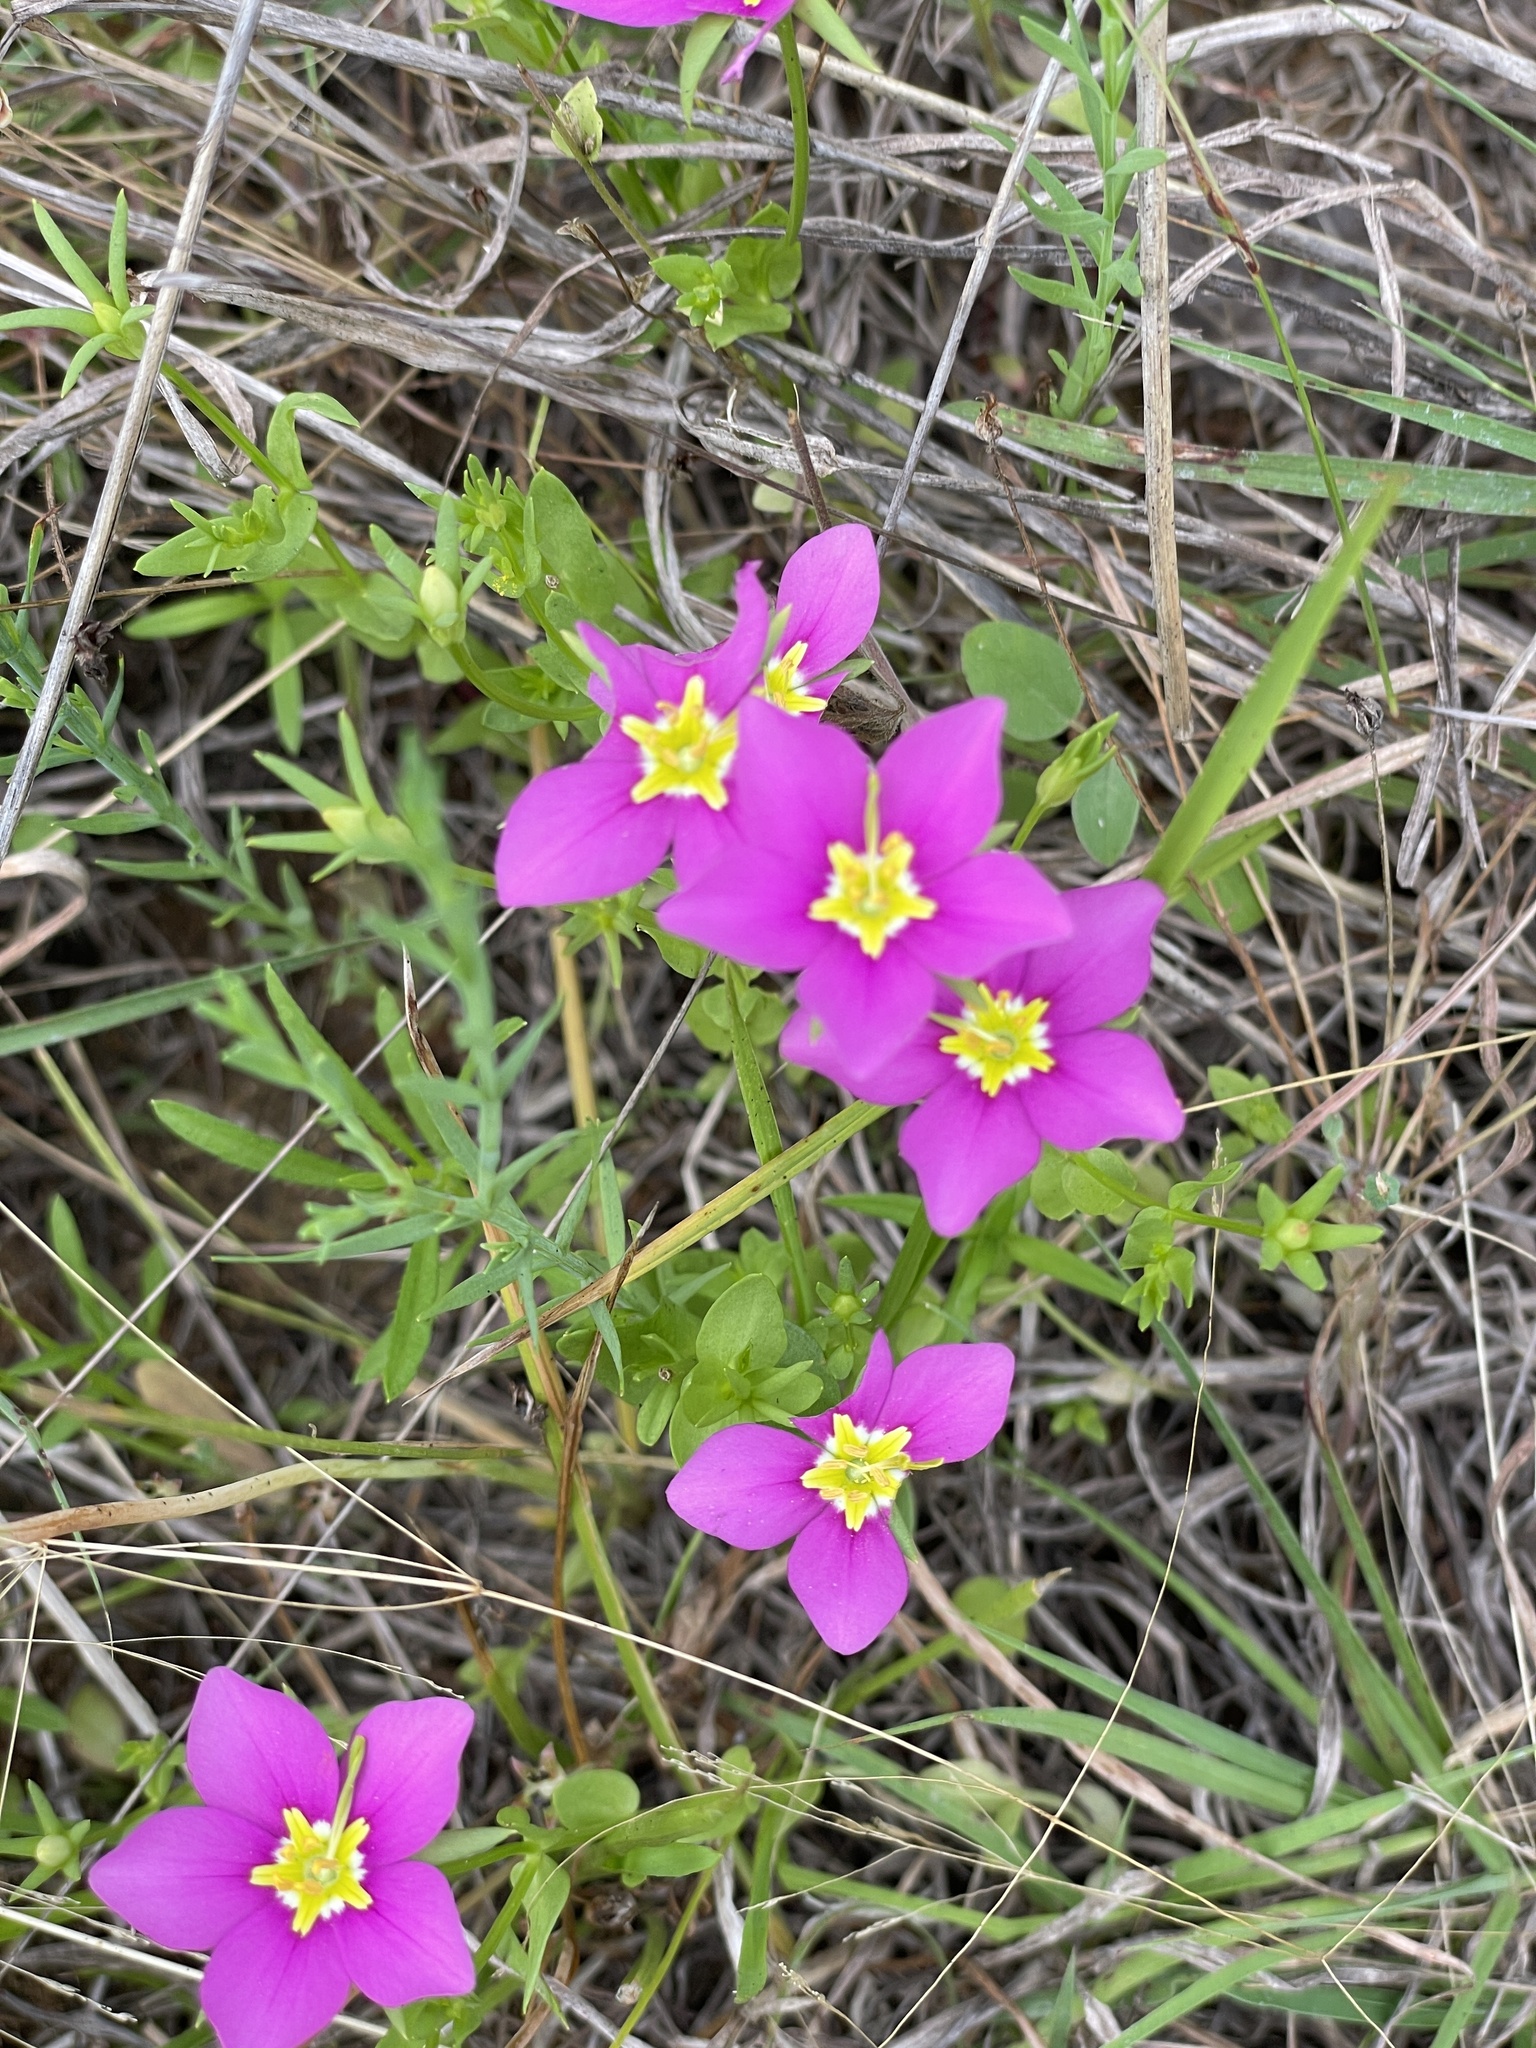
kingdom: Plantae
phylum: Tracheophyta
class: Magnoliopsida
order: Gentianales
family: Gentianaceae
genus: Sabatia
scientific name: Sabatia campestris
